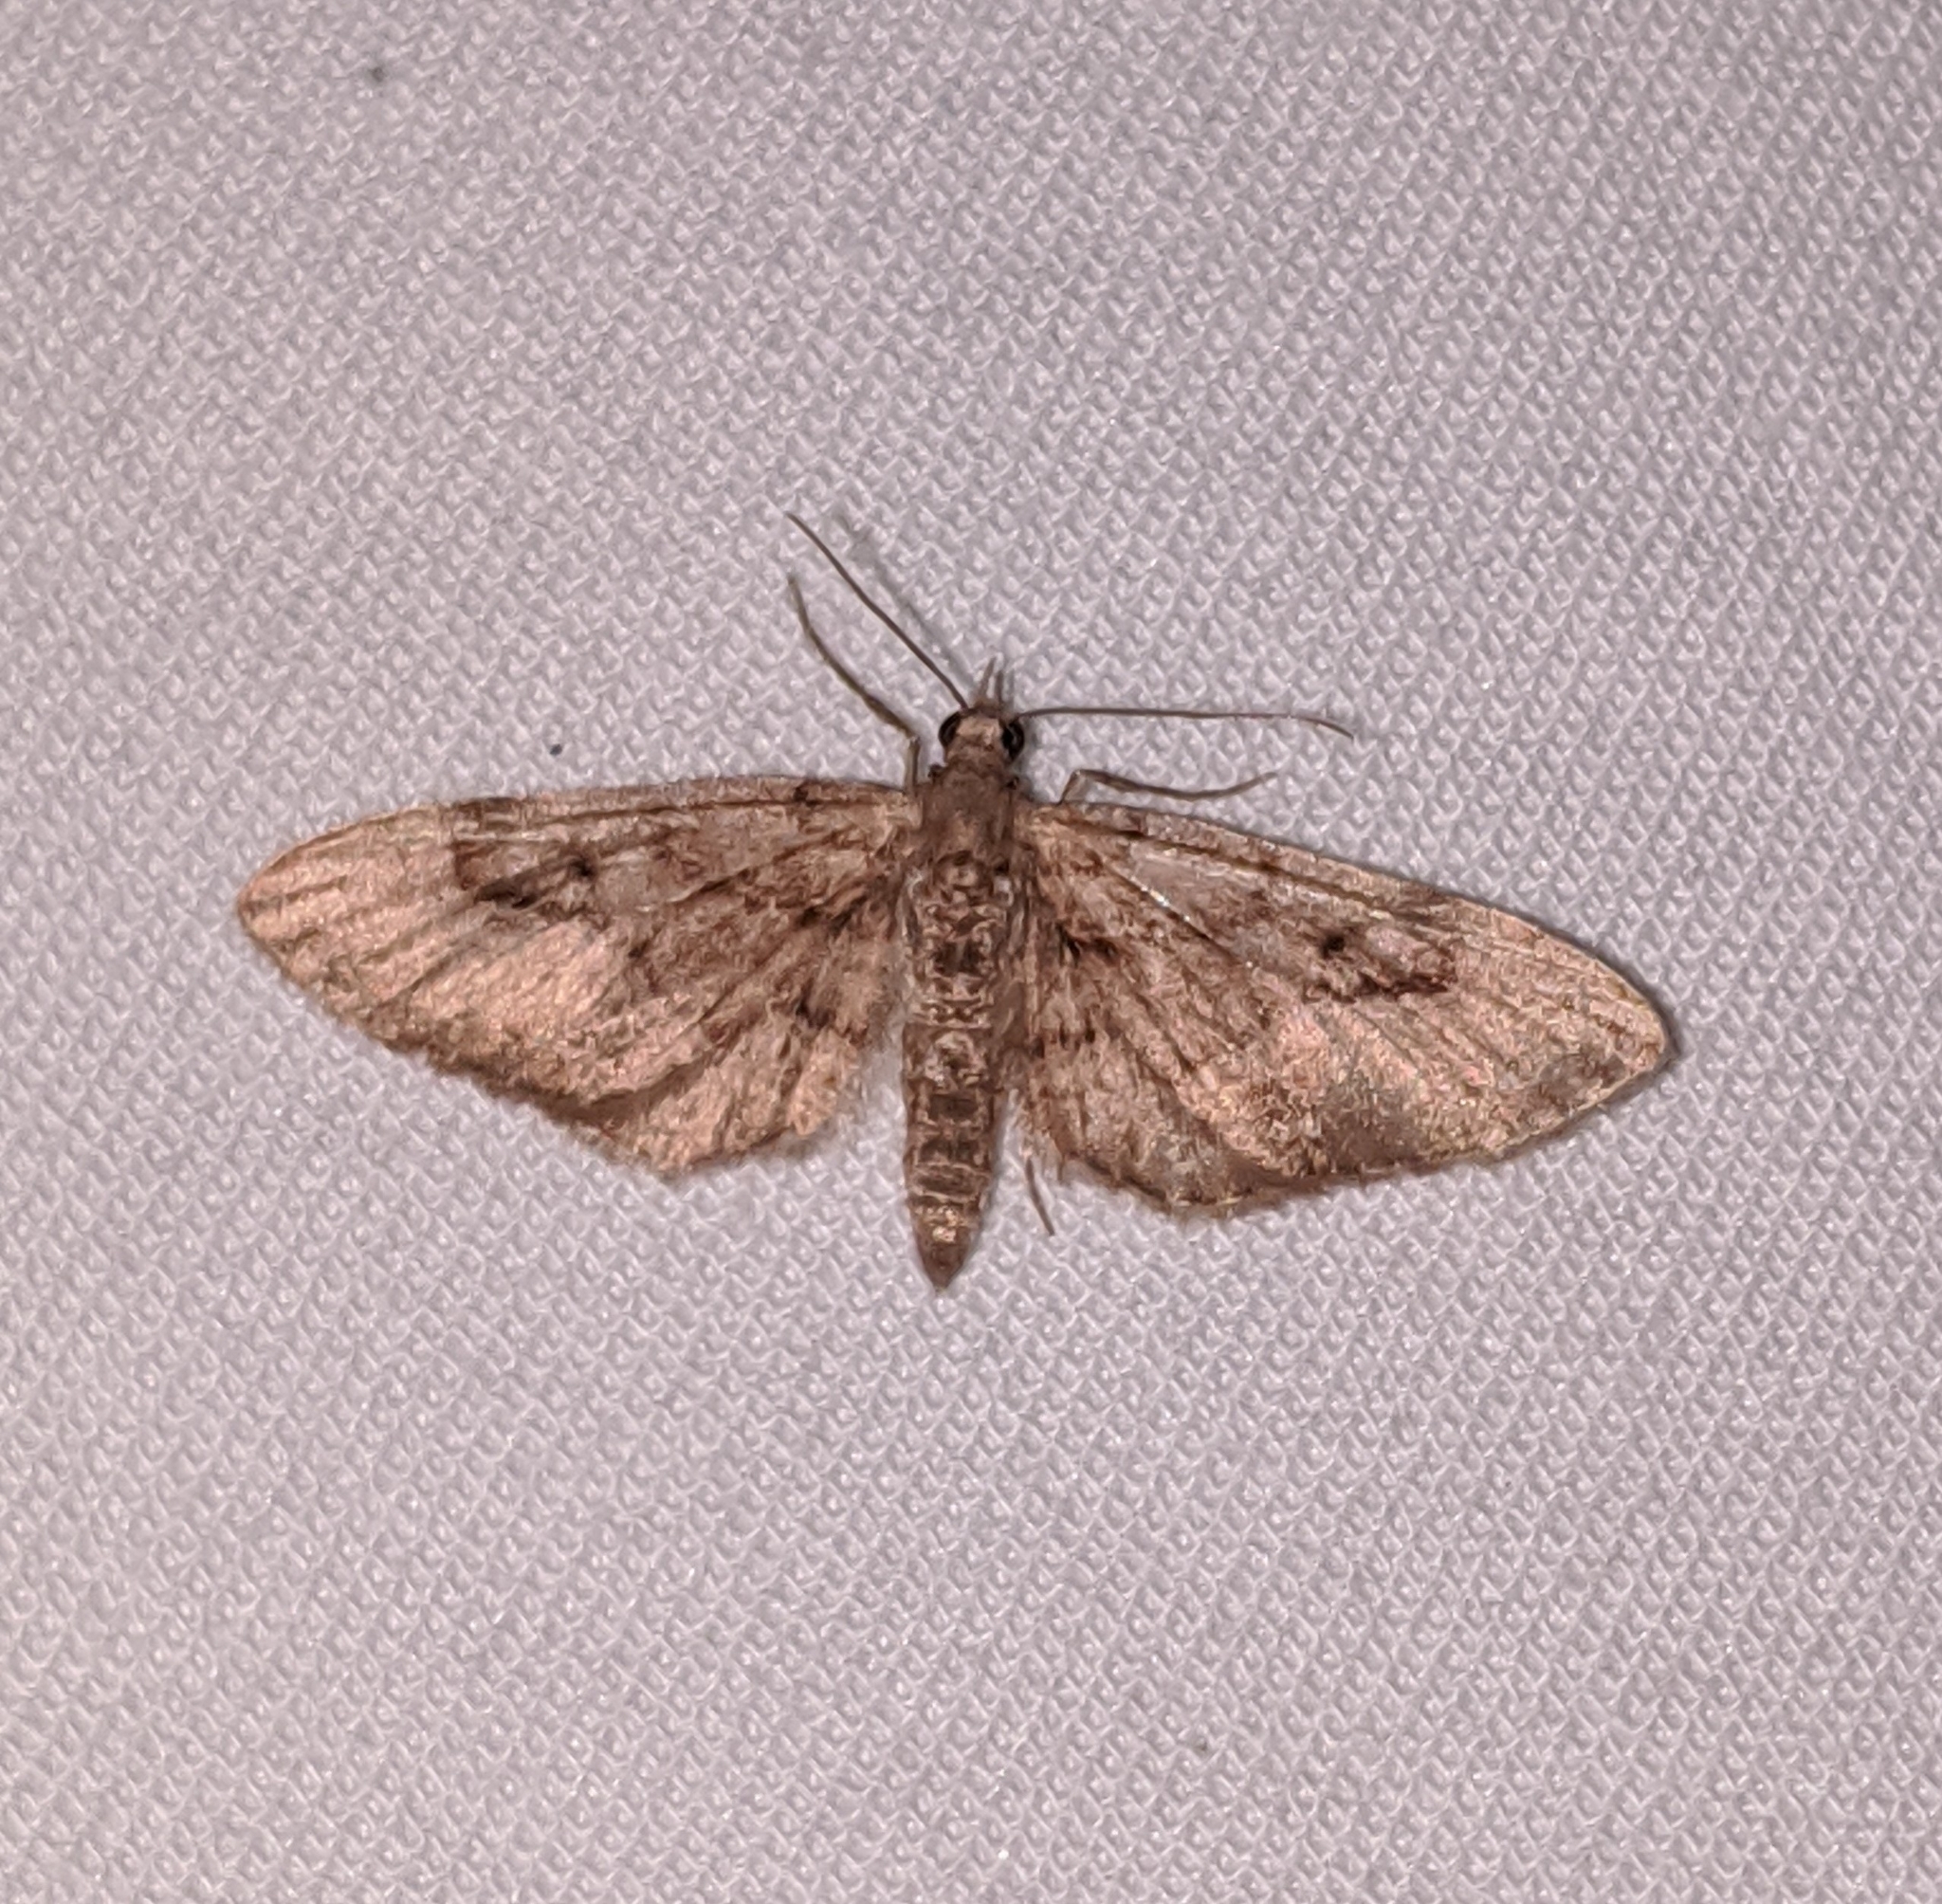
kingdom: Animalia
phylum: Arthropoda
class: Insecta
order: Lepidoptera
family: Geometridae
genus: Eupithecia
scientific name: Eupithecia unicolor
